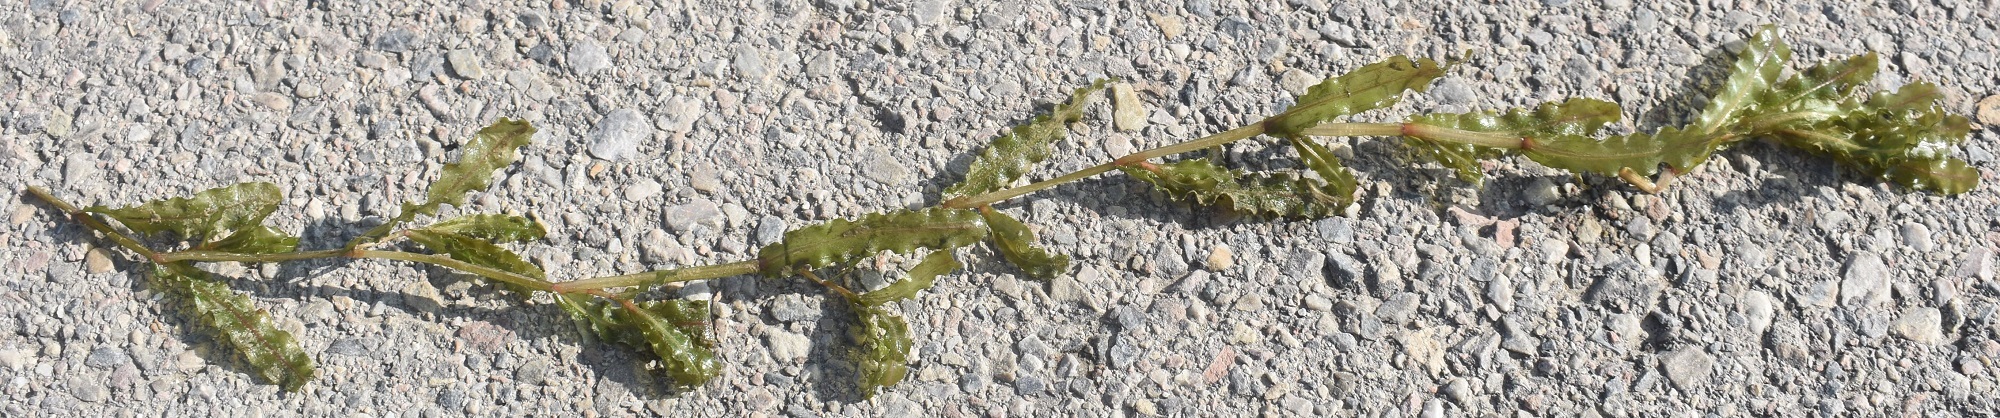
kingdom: Plantae
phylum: Tracheophyta
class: Liliopsida
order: Alismatales
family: Potamogetonaceae
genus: Potamogeton
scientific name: Potamogeton crispus
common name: Curled pondweed
